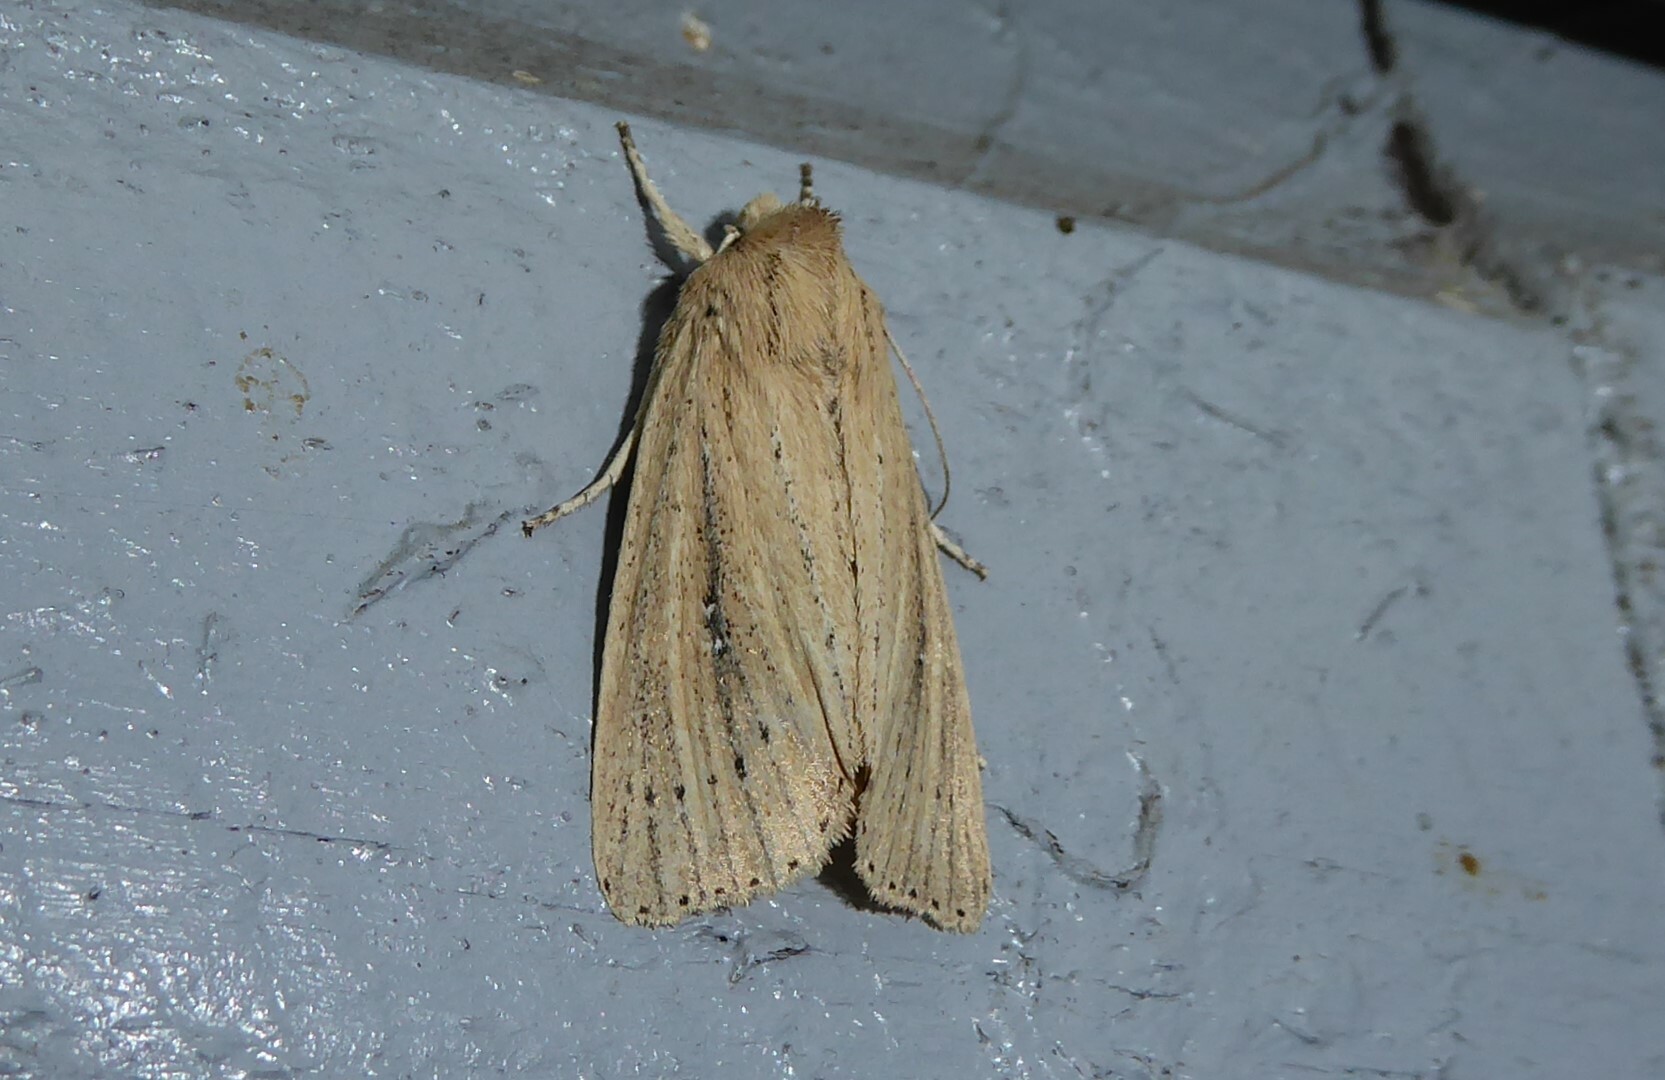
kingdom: Animalia
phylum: Arthropoda
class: Insecta
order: Lepidoptera
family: Noctuidae
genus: Ichneutica
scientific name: Ichneutica
